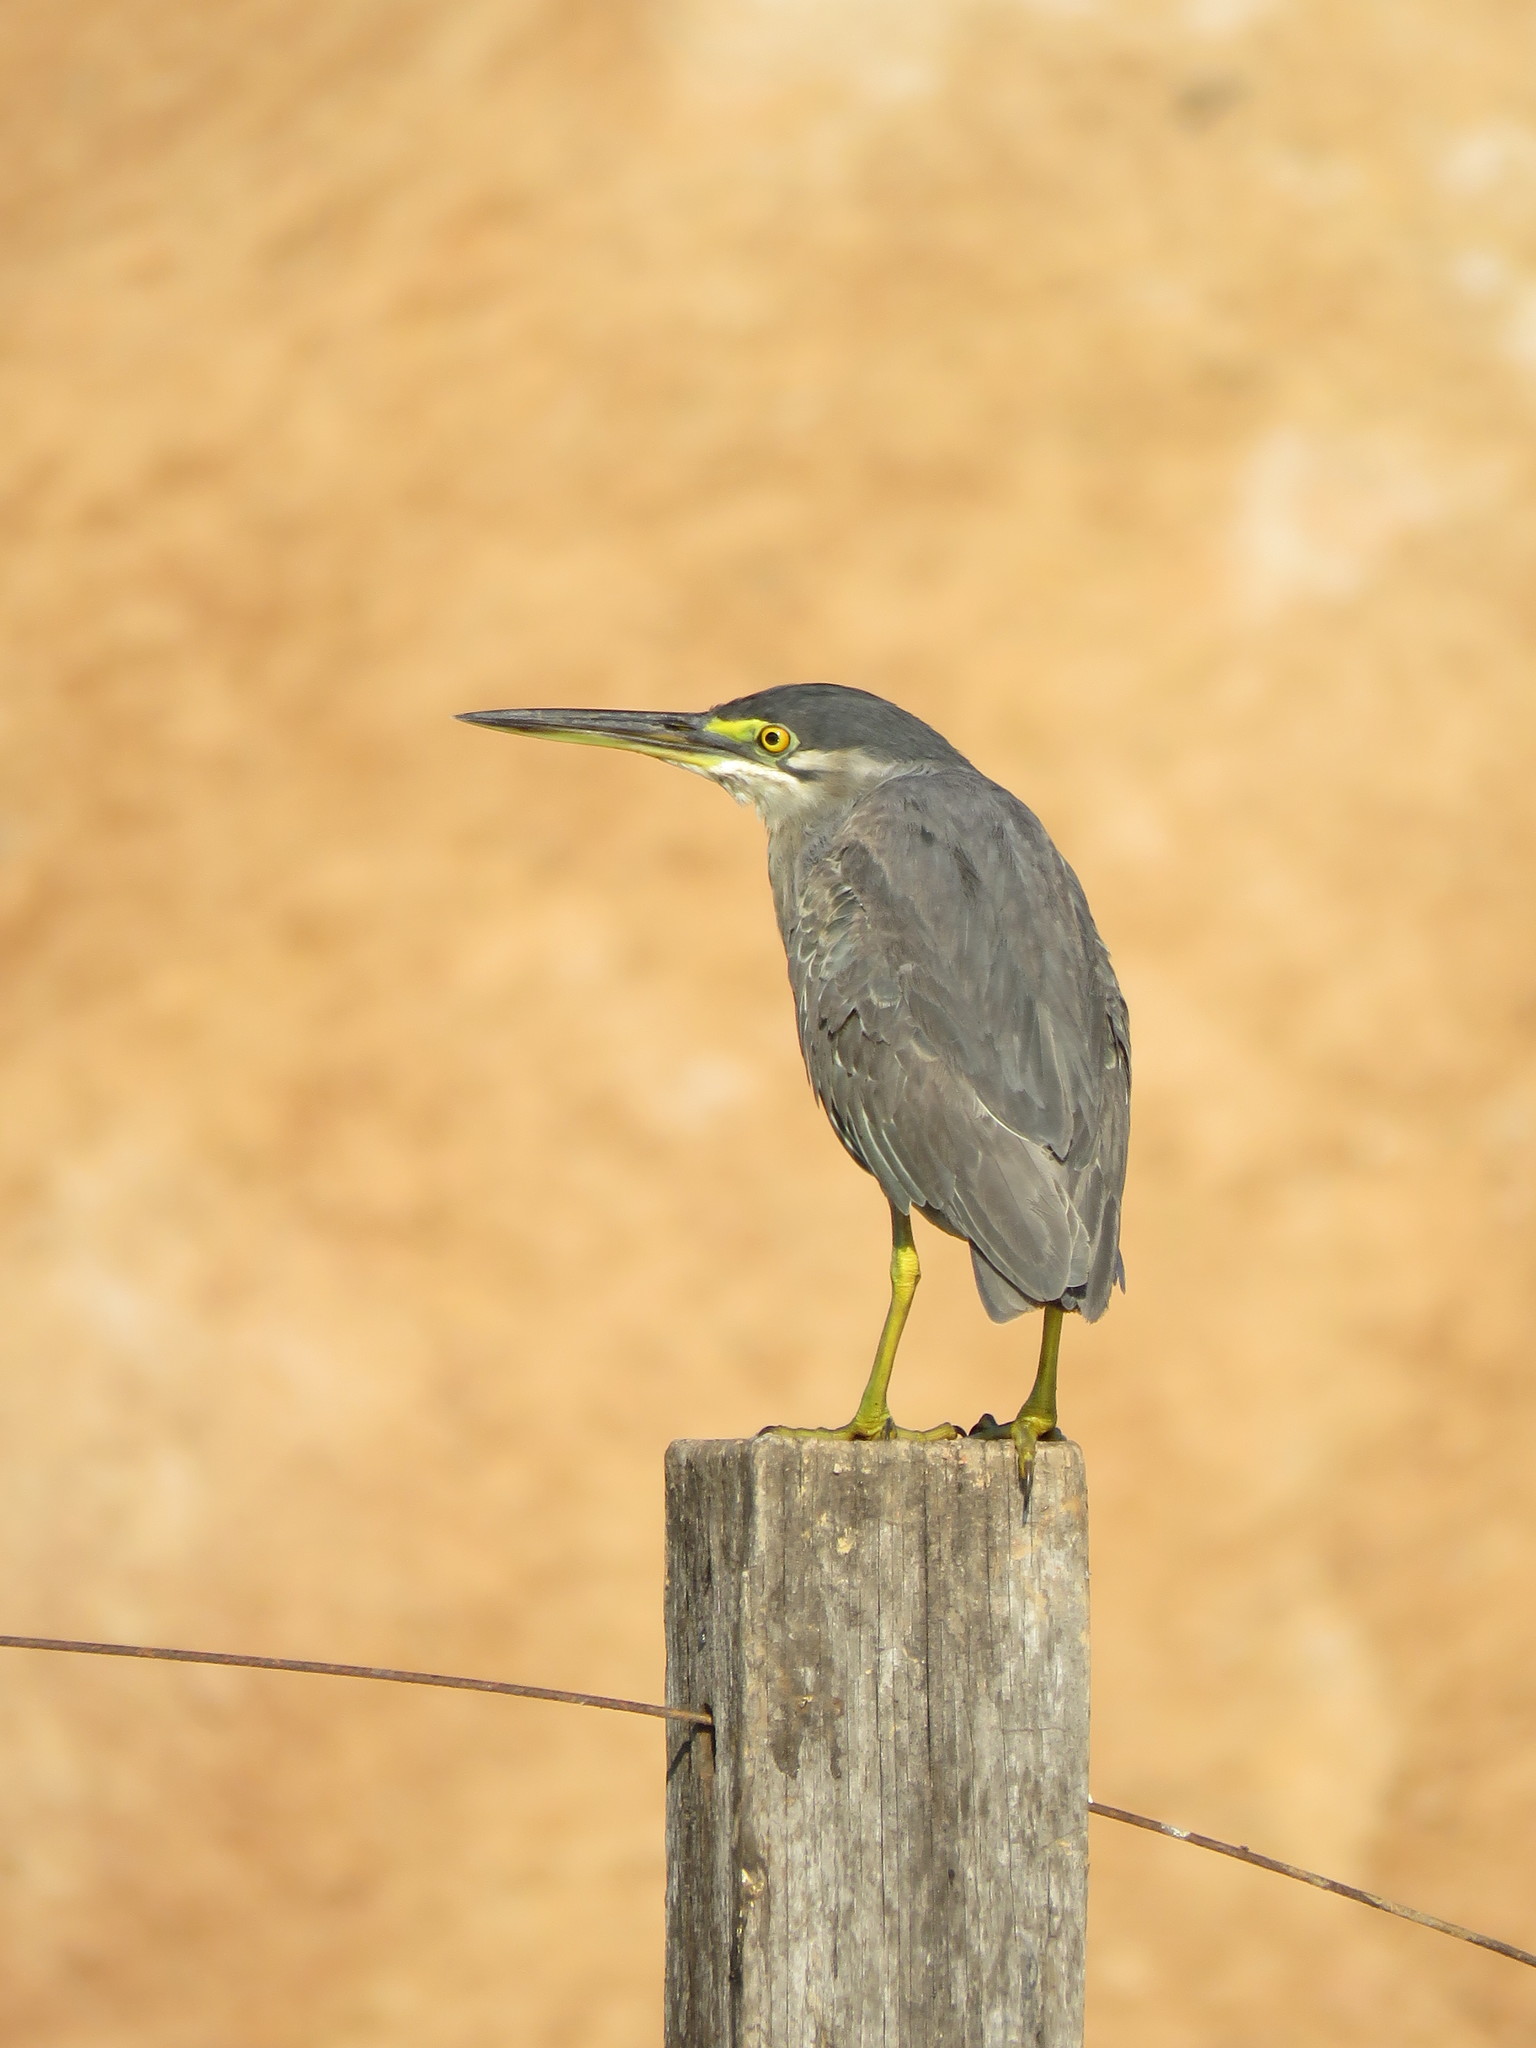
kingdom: Animalia
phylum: Chordata
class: Aves
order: Pelecaniformes
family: Ardeidae
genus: Butorides
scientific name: Butorides striata
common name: Striated heron
